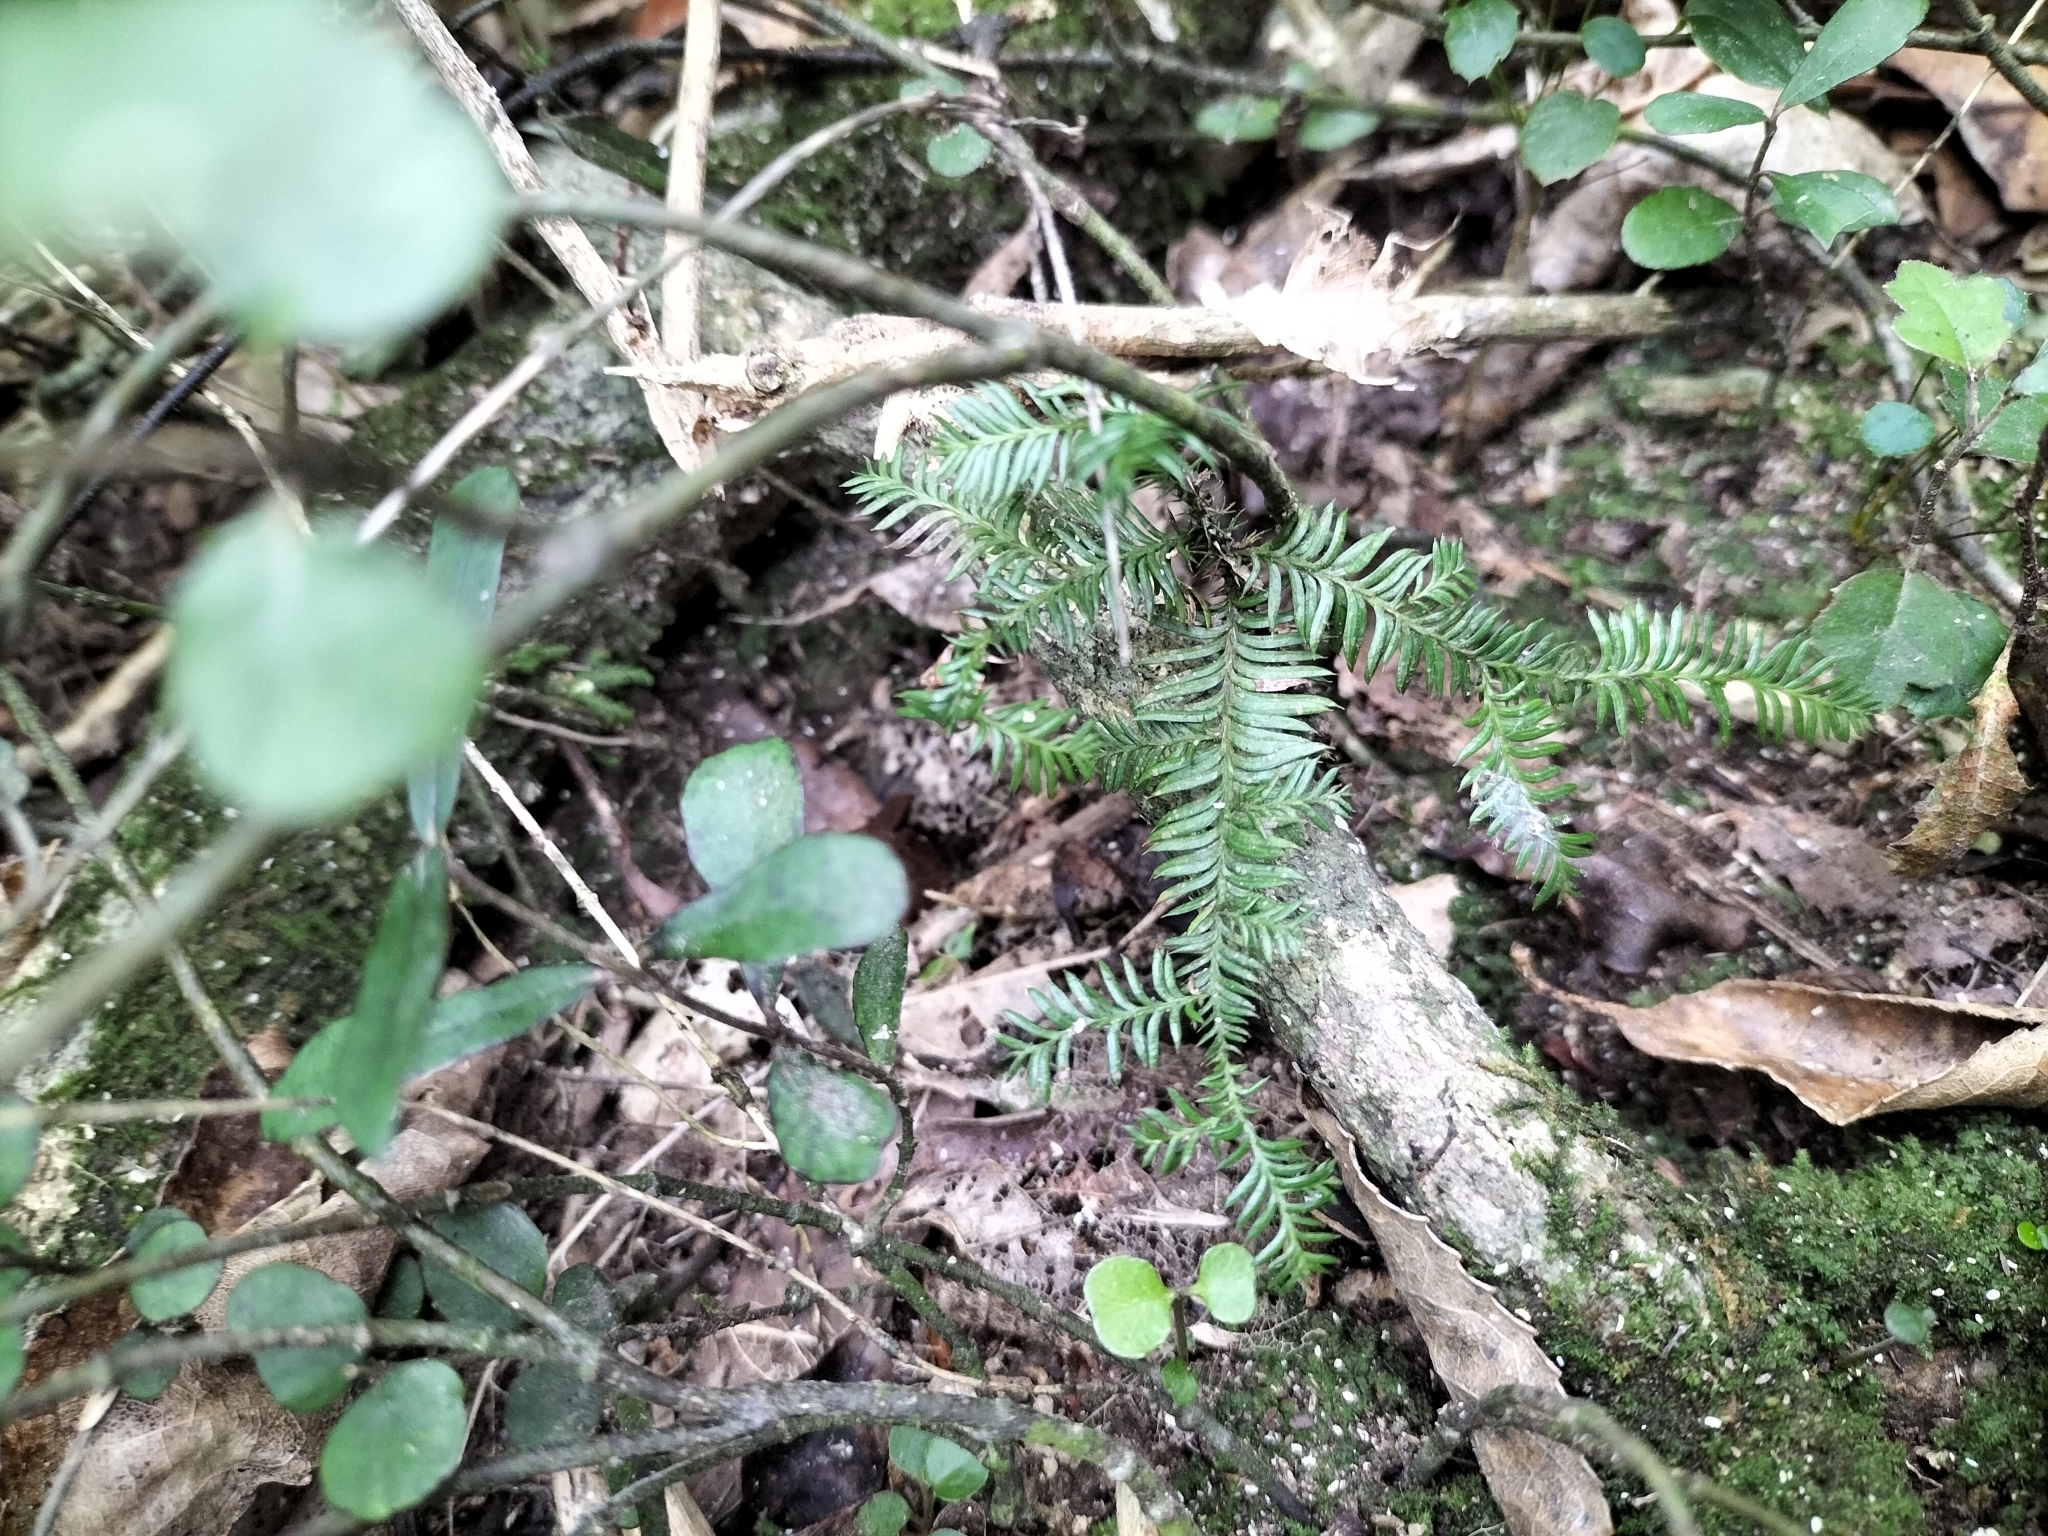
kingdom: Plantae
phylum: Tracheophyta
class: Pinopsida
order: Pinales
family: Podocarpaceae
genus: Dacrycarpus
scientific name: Dacrycarpus dacrydioides
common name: White pine
